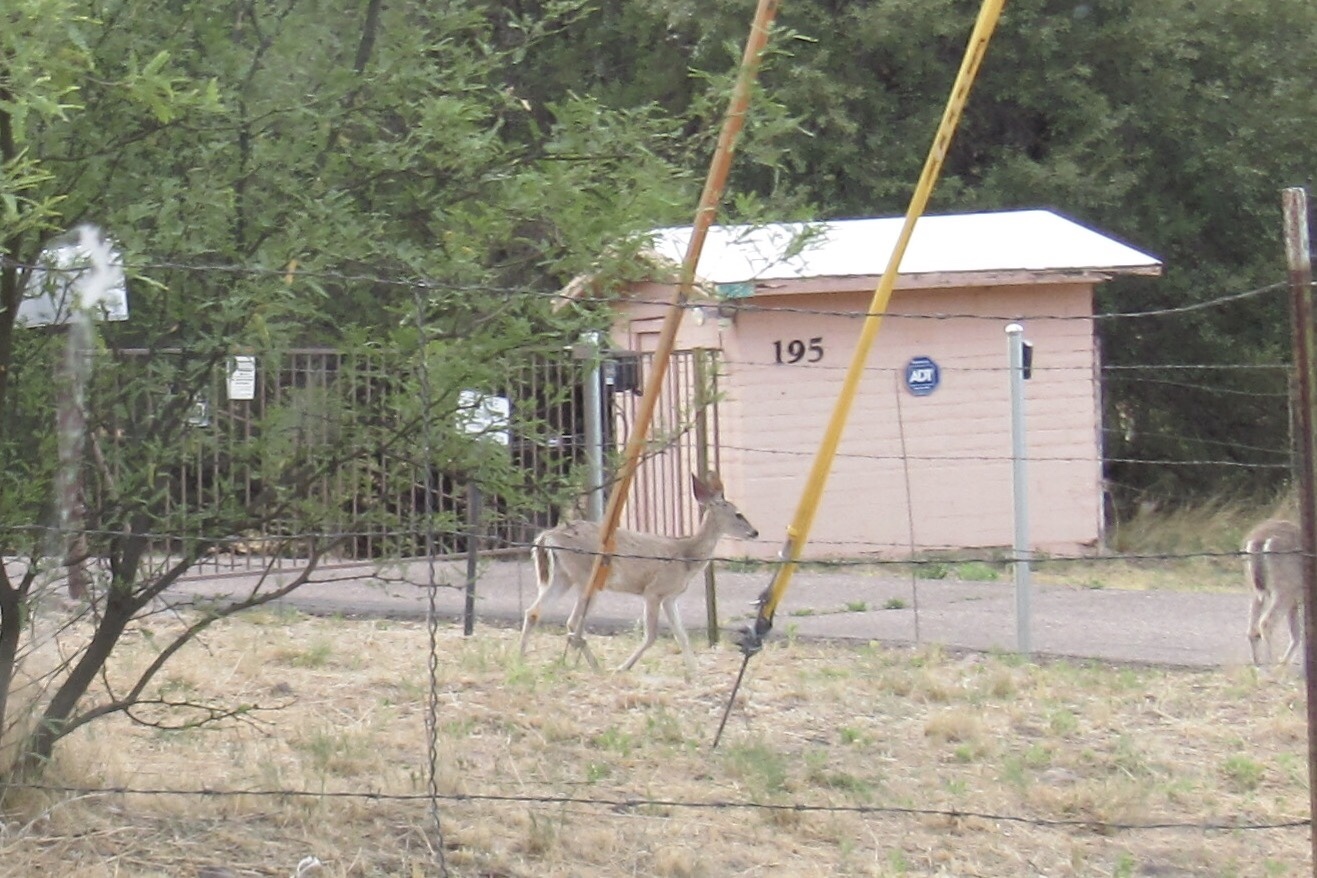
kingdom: Animalia
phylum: Chordata
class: Mammalia
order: Artiodactyla
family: Cervidae
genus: Odocoileus
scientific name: Odocoileus virginianus
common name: White-tailed deer
